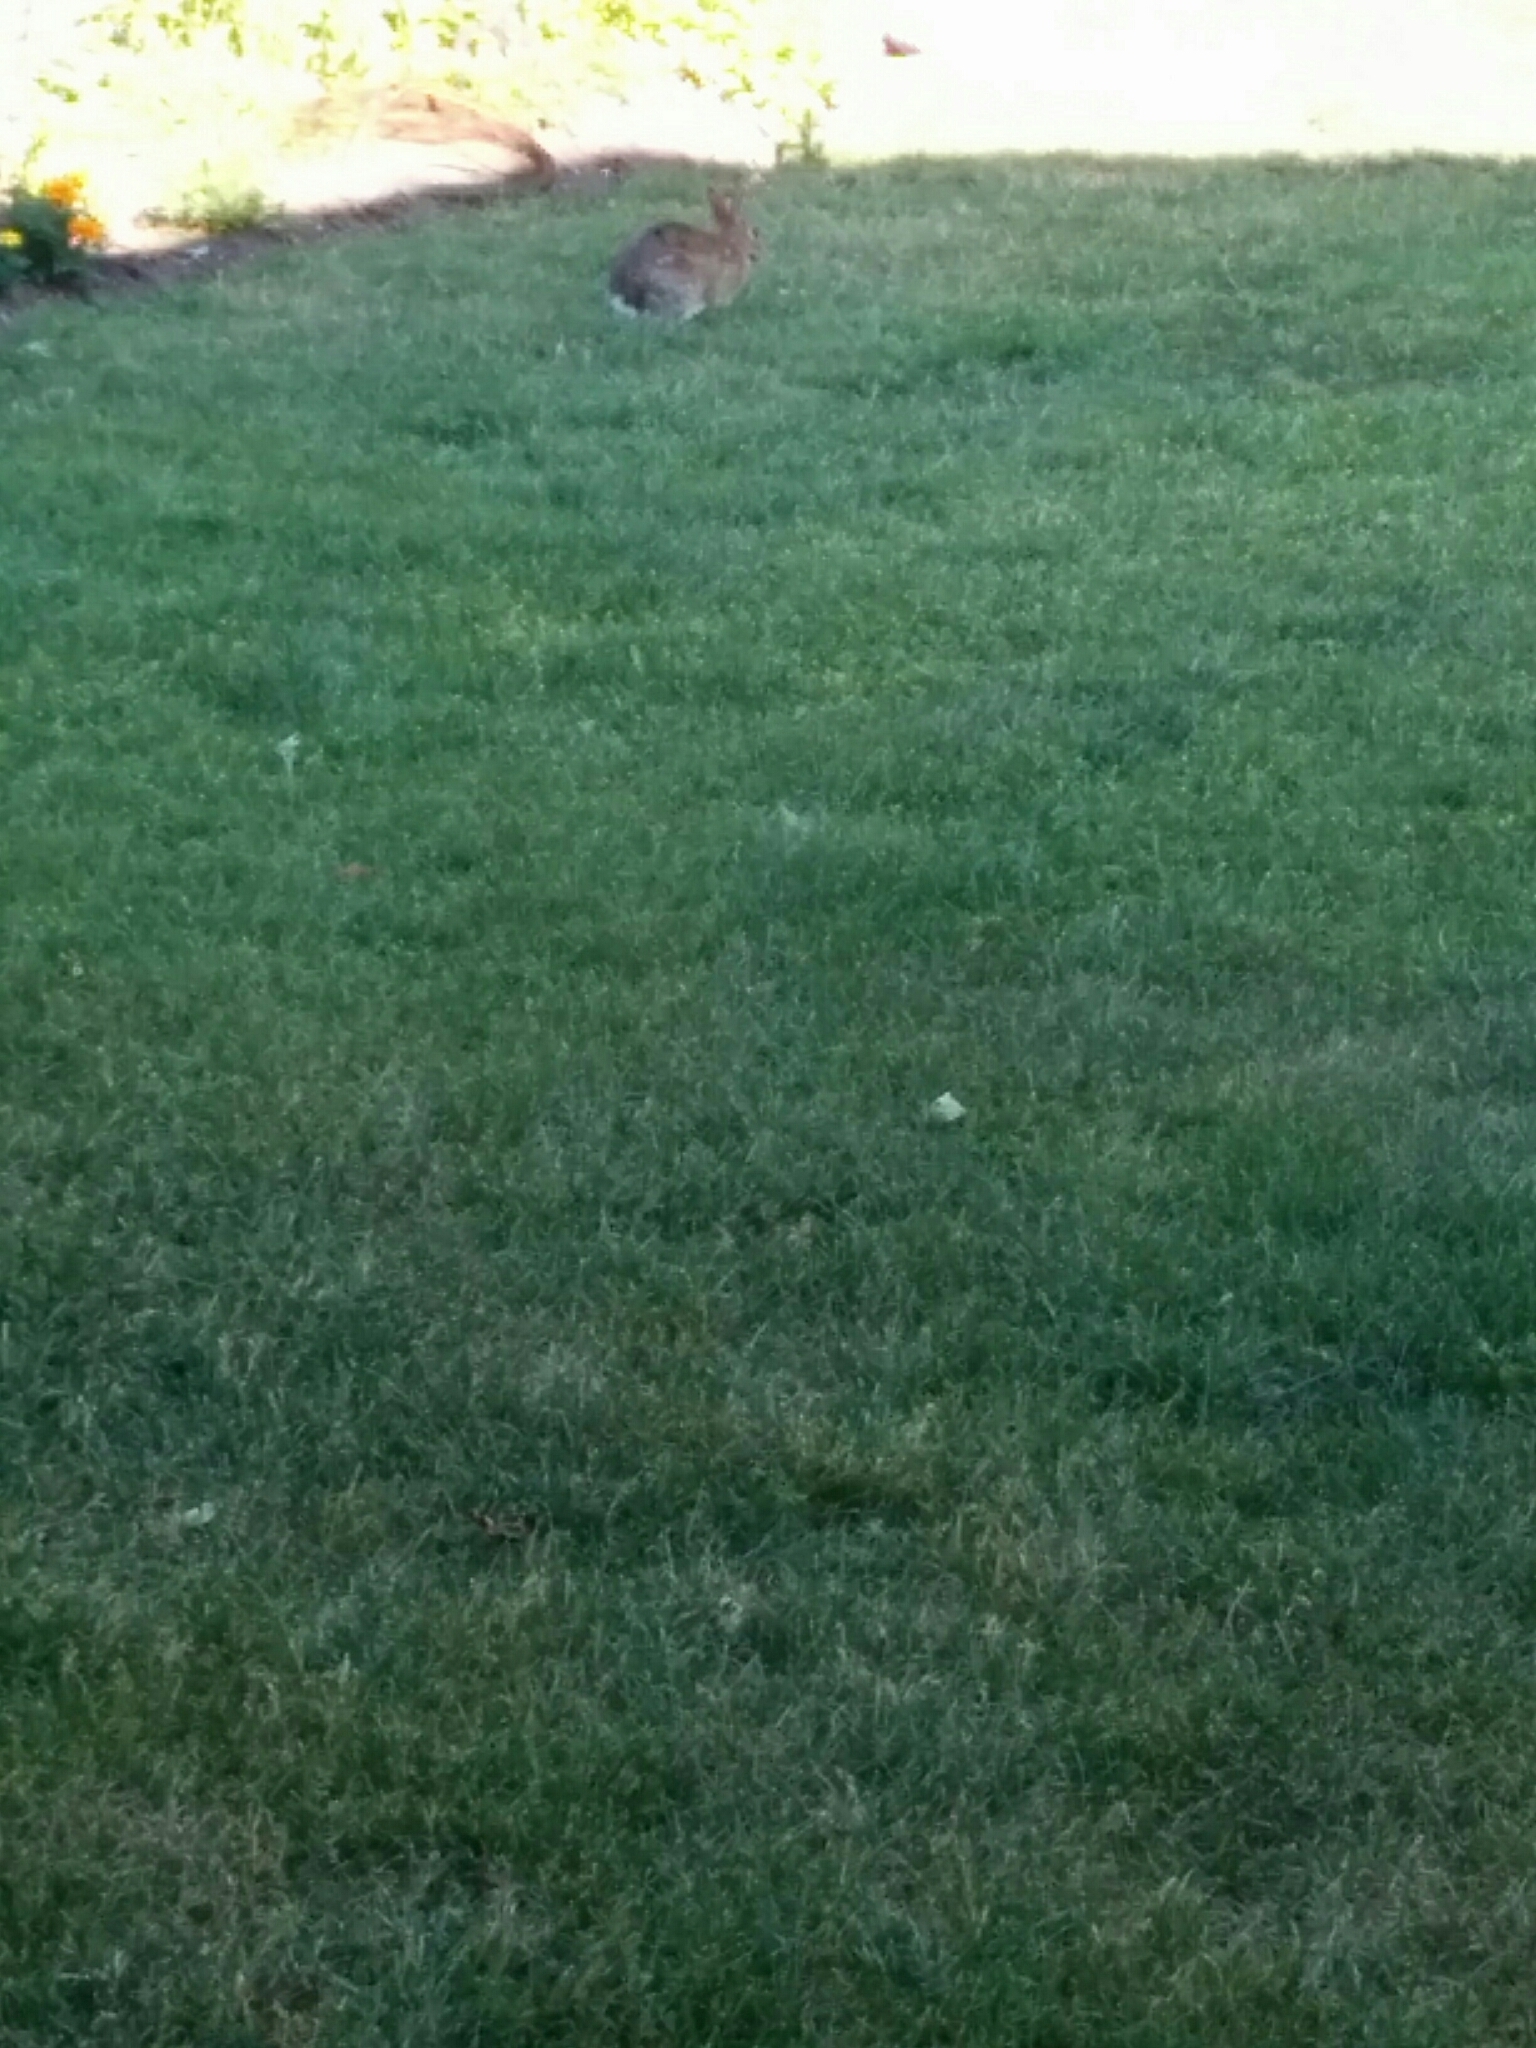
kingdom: Animalia
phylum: Chordata
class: Mammalia
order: Lagomorpha
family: Leporidae
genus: Sylvilagus
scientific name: Sylvilagus floridanus
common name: Eastern cottontail
